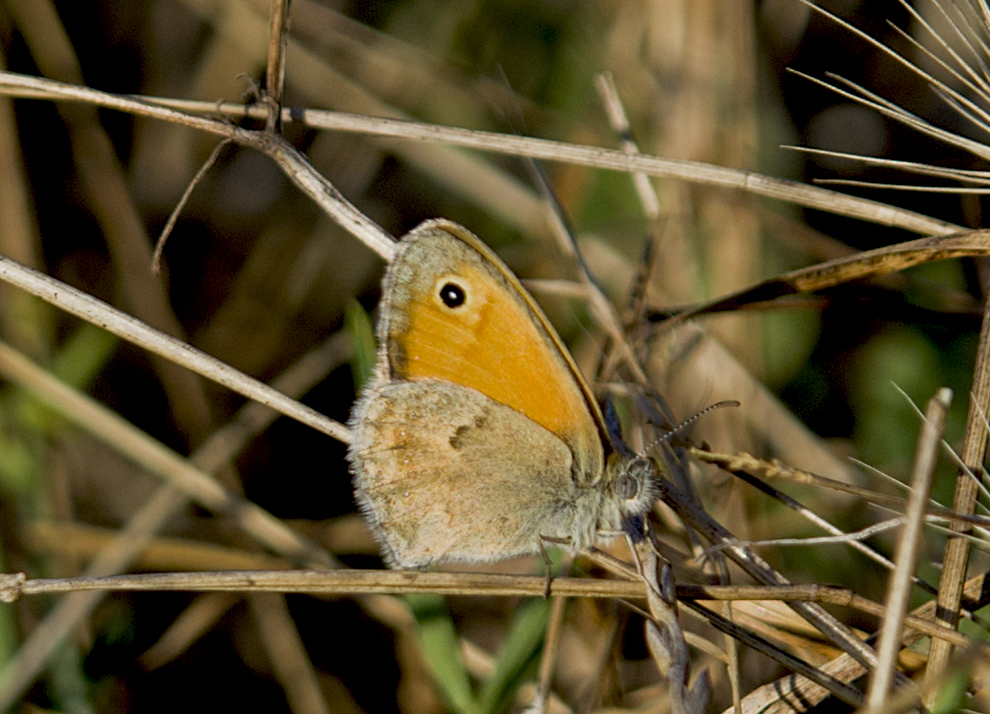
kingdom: Animalia
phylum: Arthropoda
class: Insecta
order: Lepidoptera
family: Nymphalidae
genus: Coenonympha
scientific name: Coenonympha pamphilus
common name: Small heath
